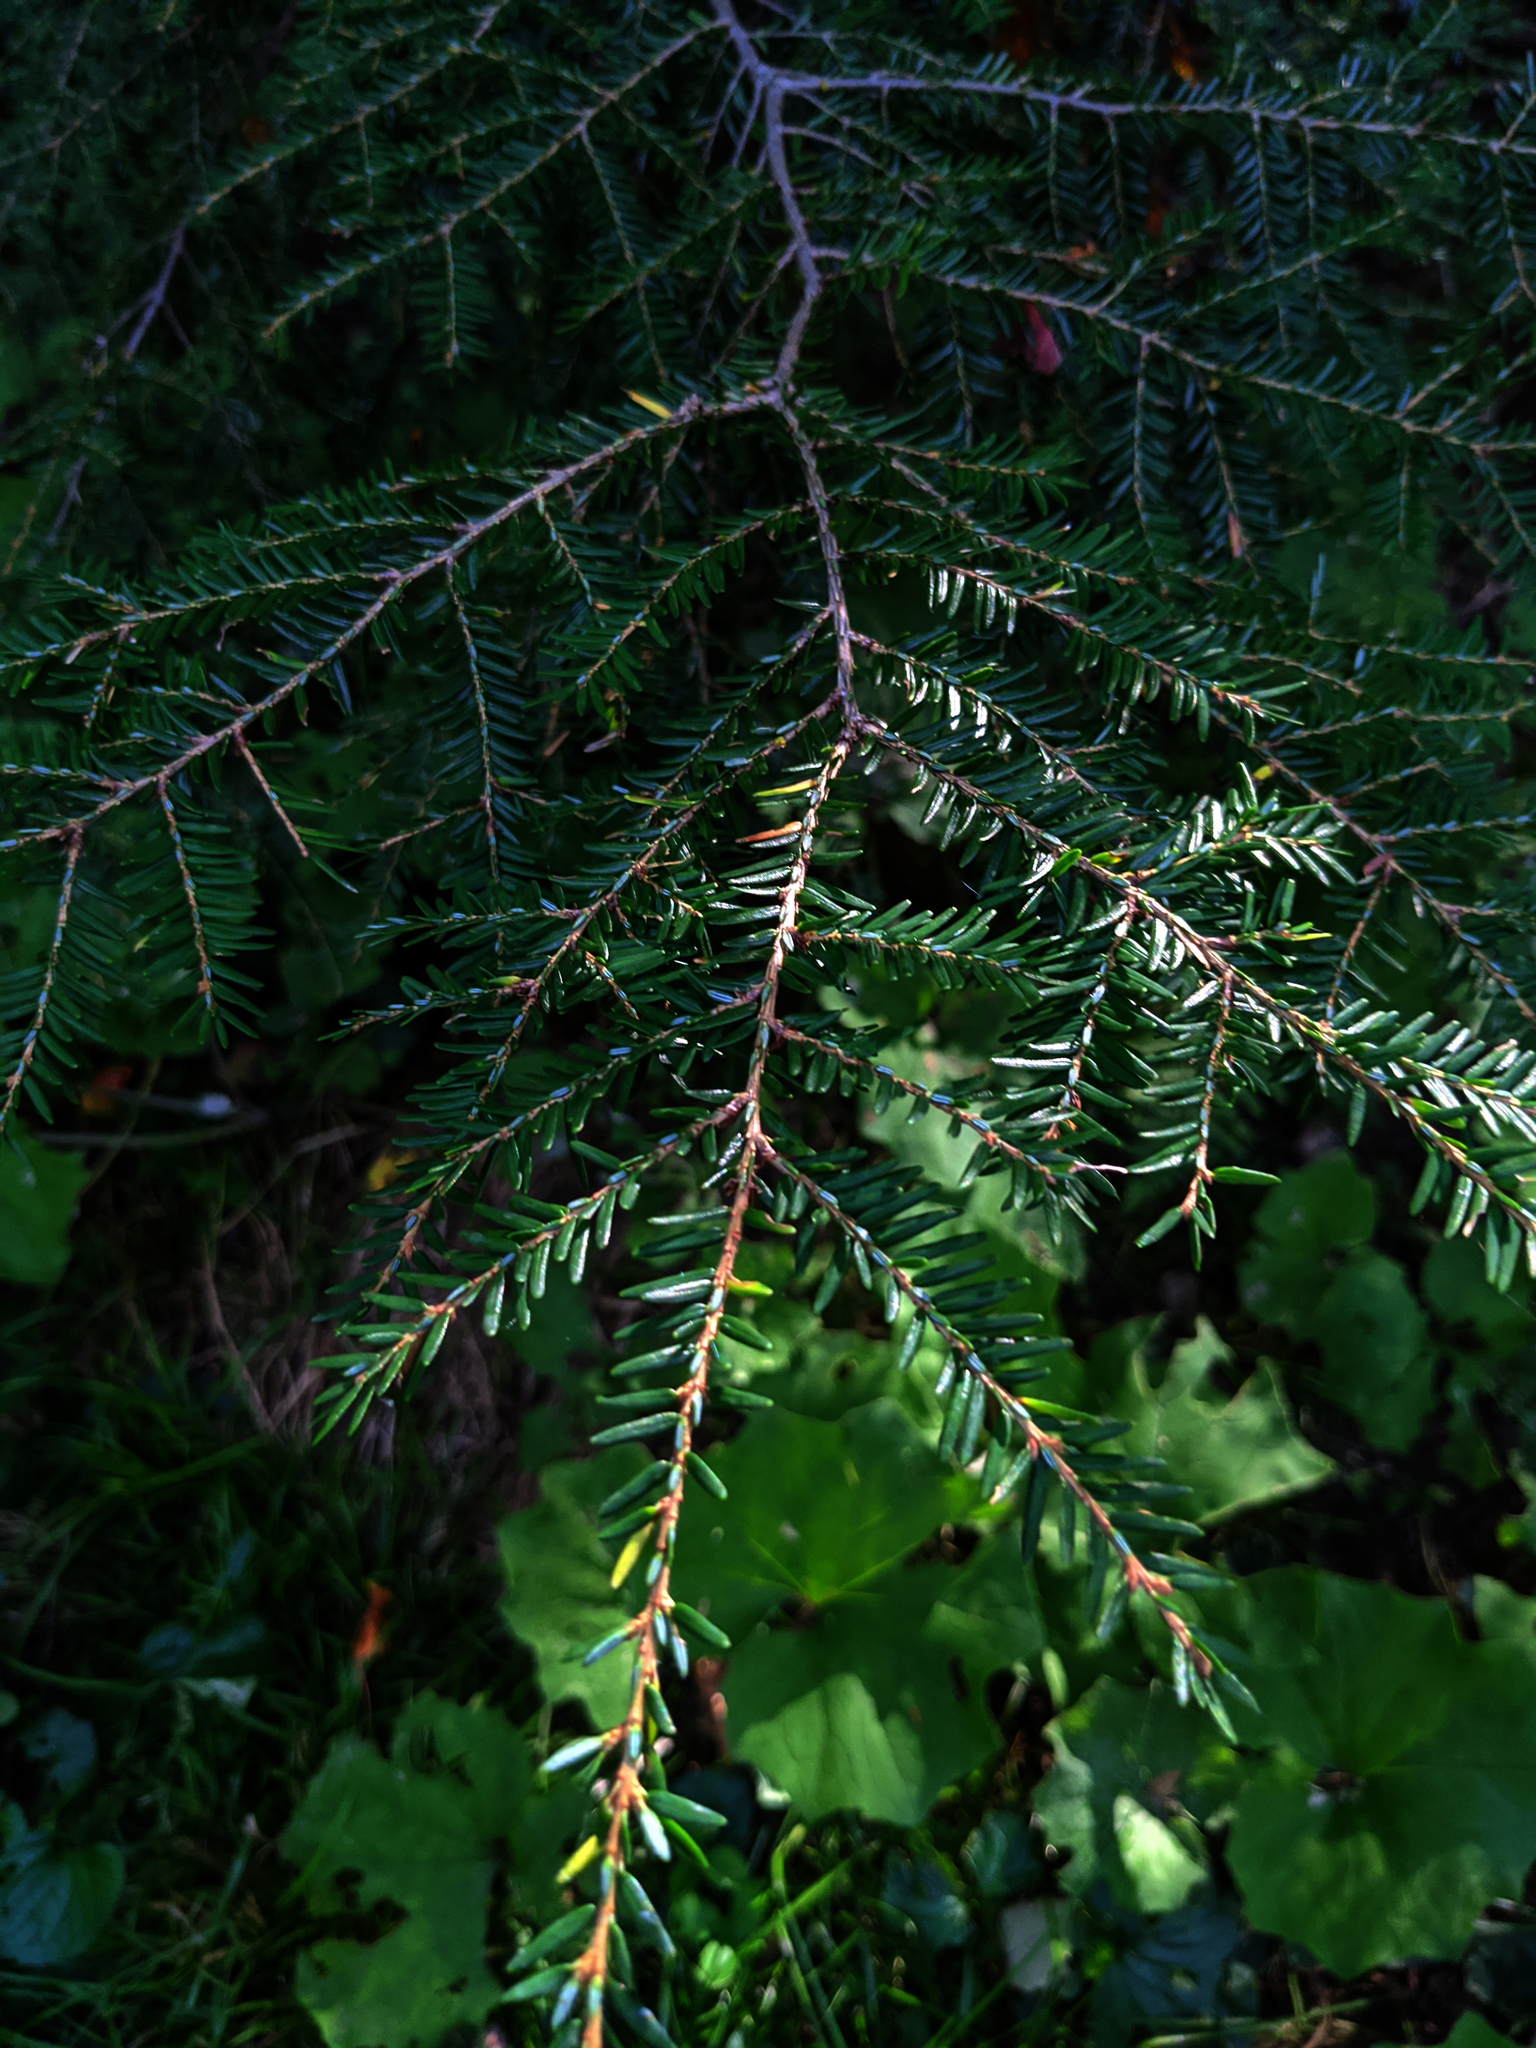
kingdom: Plantae
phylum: Tracheophyta
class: Pinopsida
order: Pinales
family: Pinaceae
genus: Tsuga
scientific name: Tsuga canadensis
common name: Eastern hemlock
